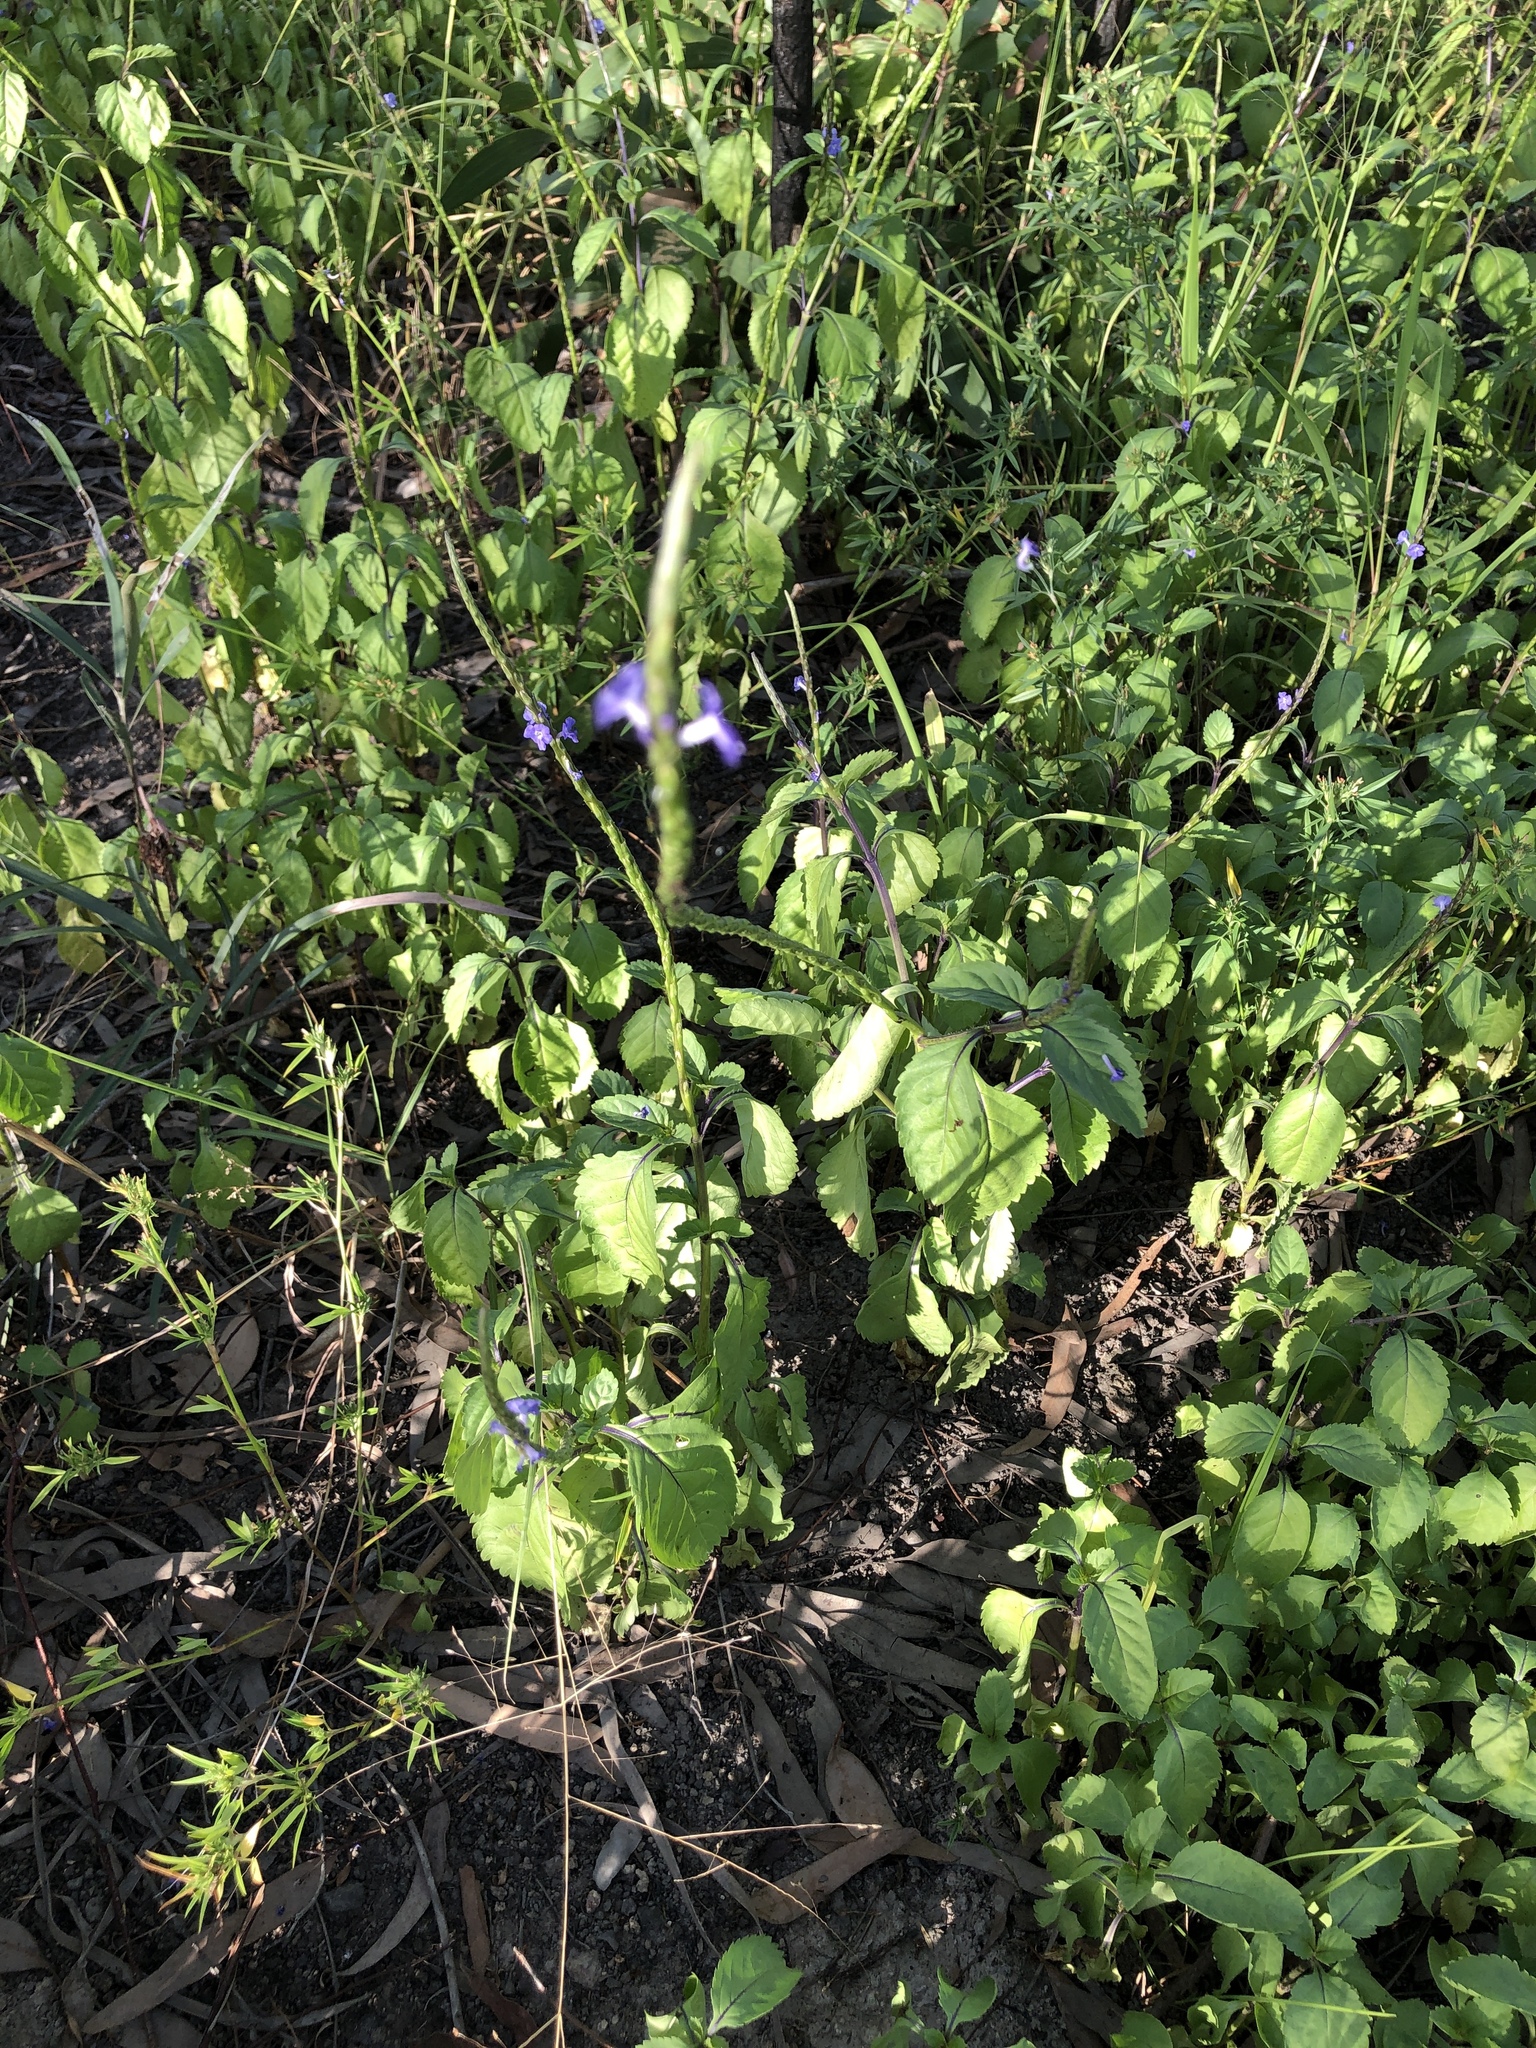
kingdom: Plantae
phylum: Tracheophyta
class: Magnoliopsida
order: Lamiales
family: Verbenaceae
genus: Stachytarpheta
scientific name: Stachytarpheta jamaicensis
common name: Light-blue snakeweed
